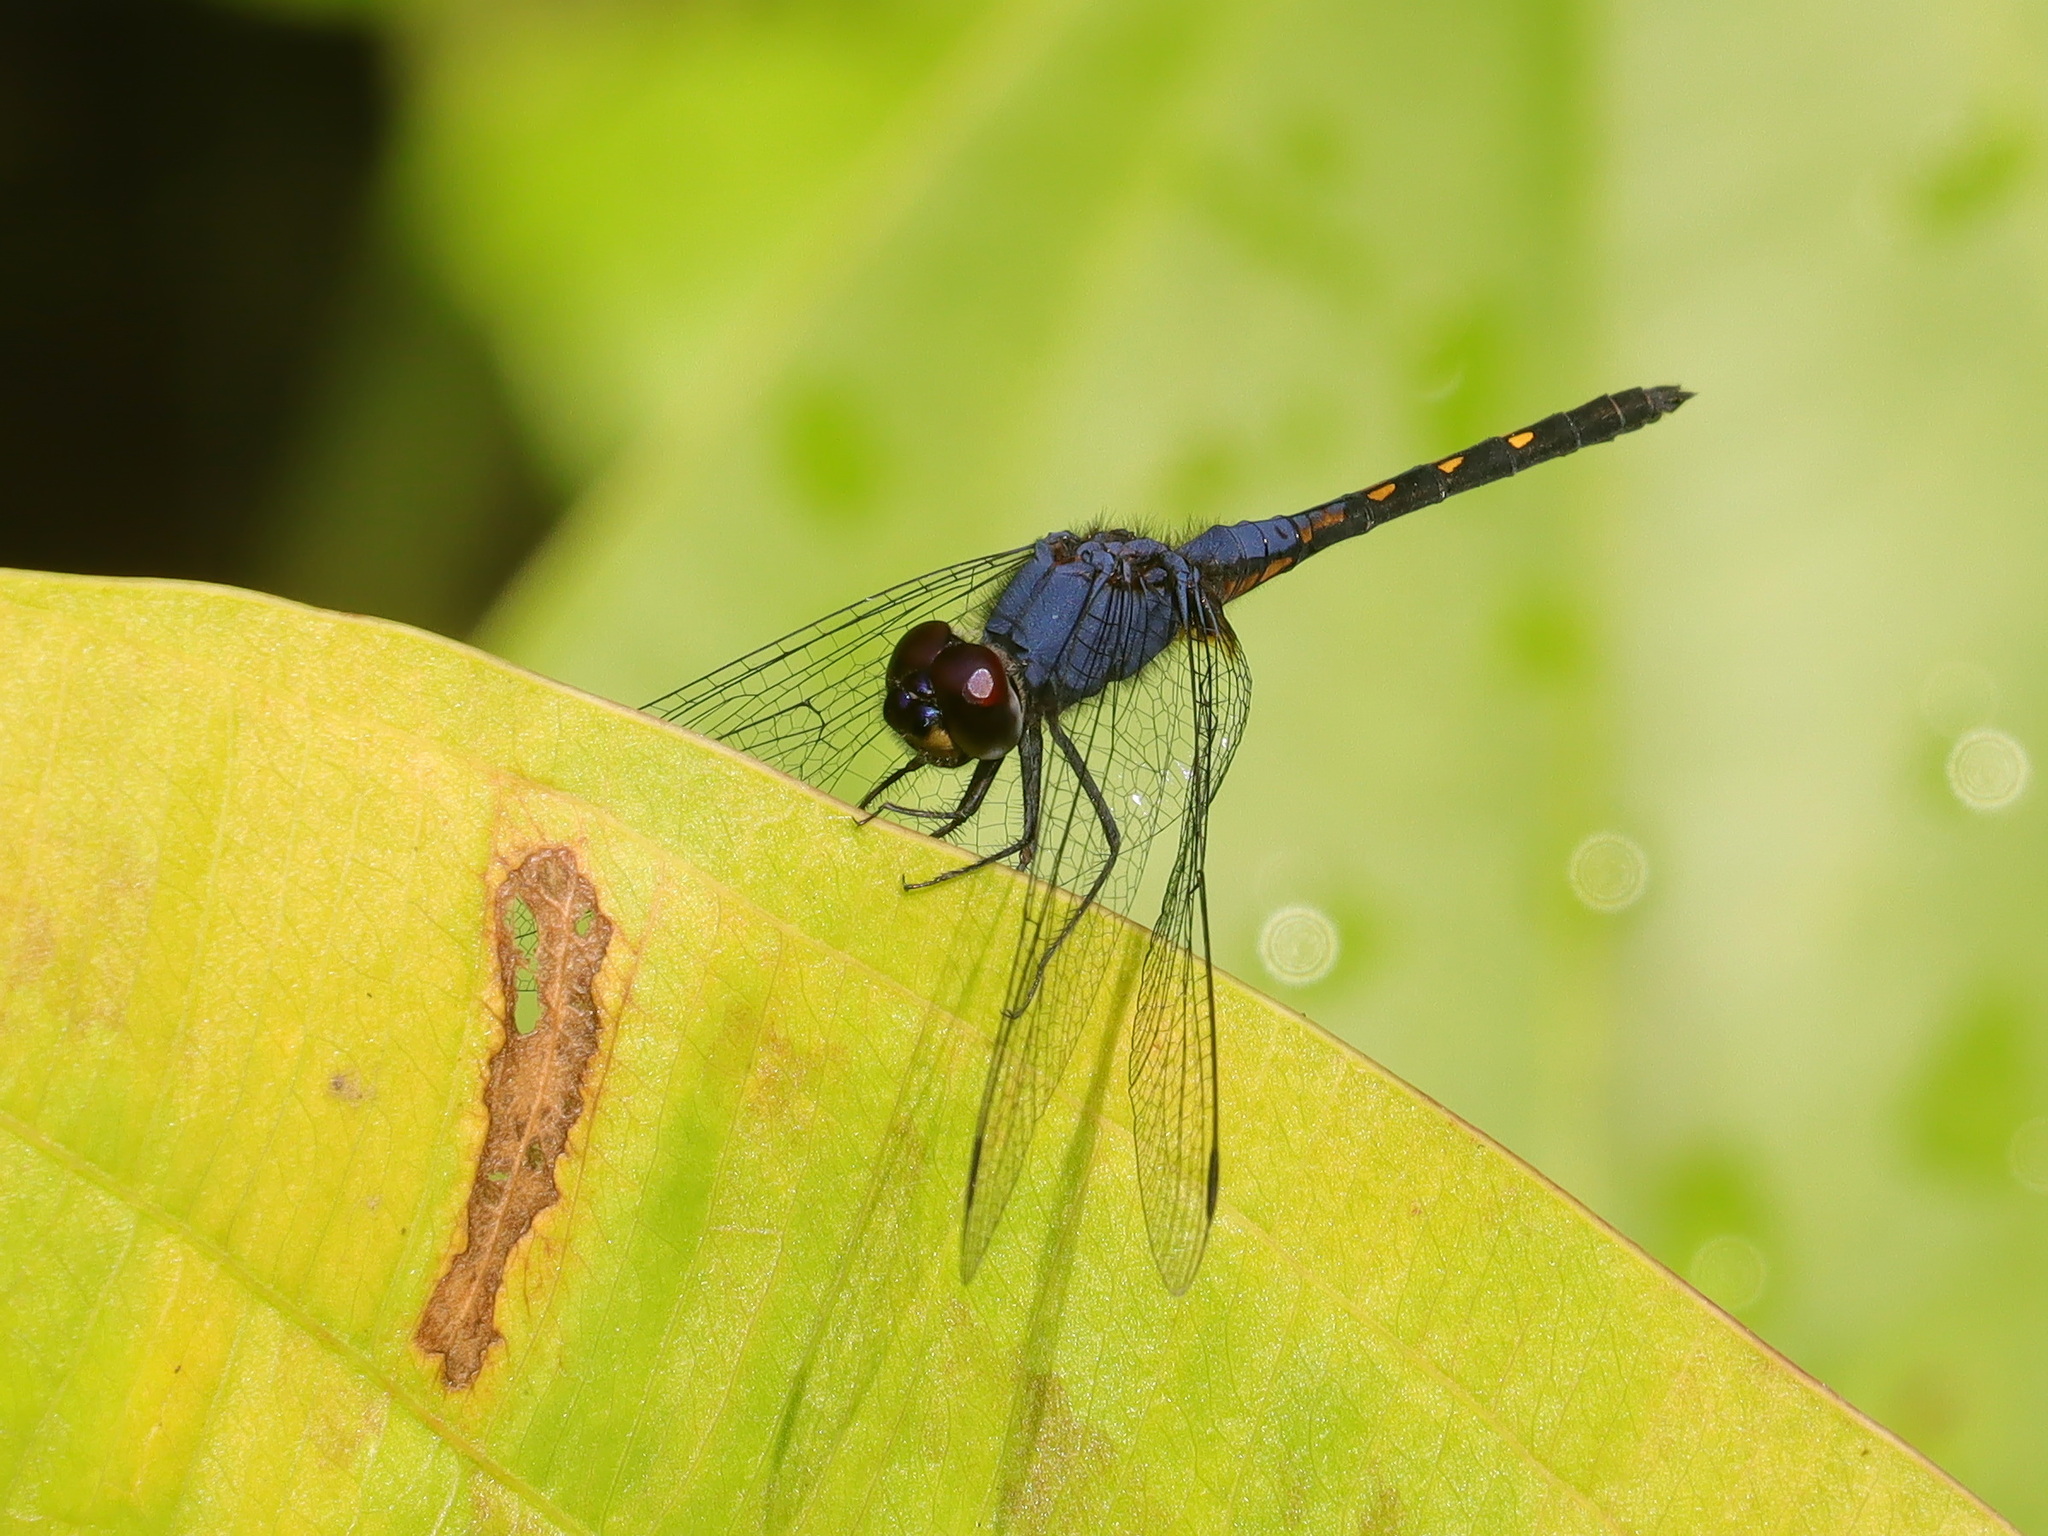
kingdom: Animalia
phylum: Arthropoda
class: Insecta
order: Odonata
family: Libellulidae
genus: Trithemis
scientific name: Trithemis festiva
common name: Indigo dropwing
